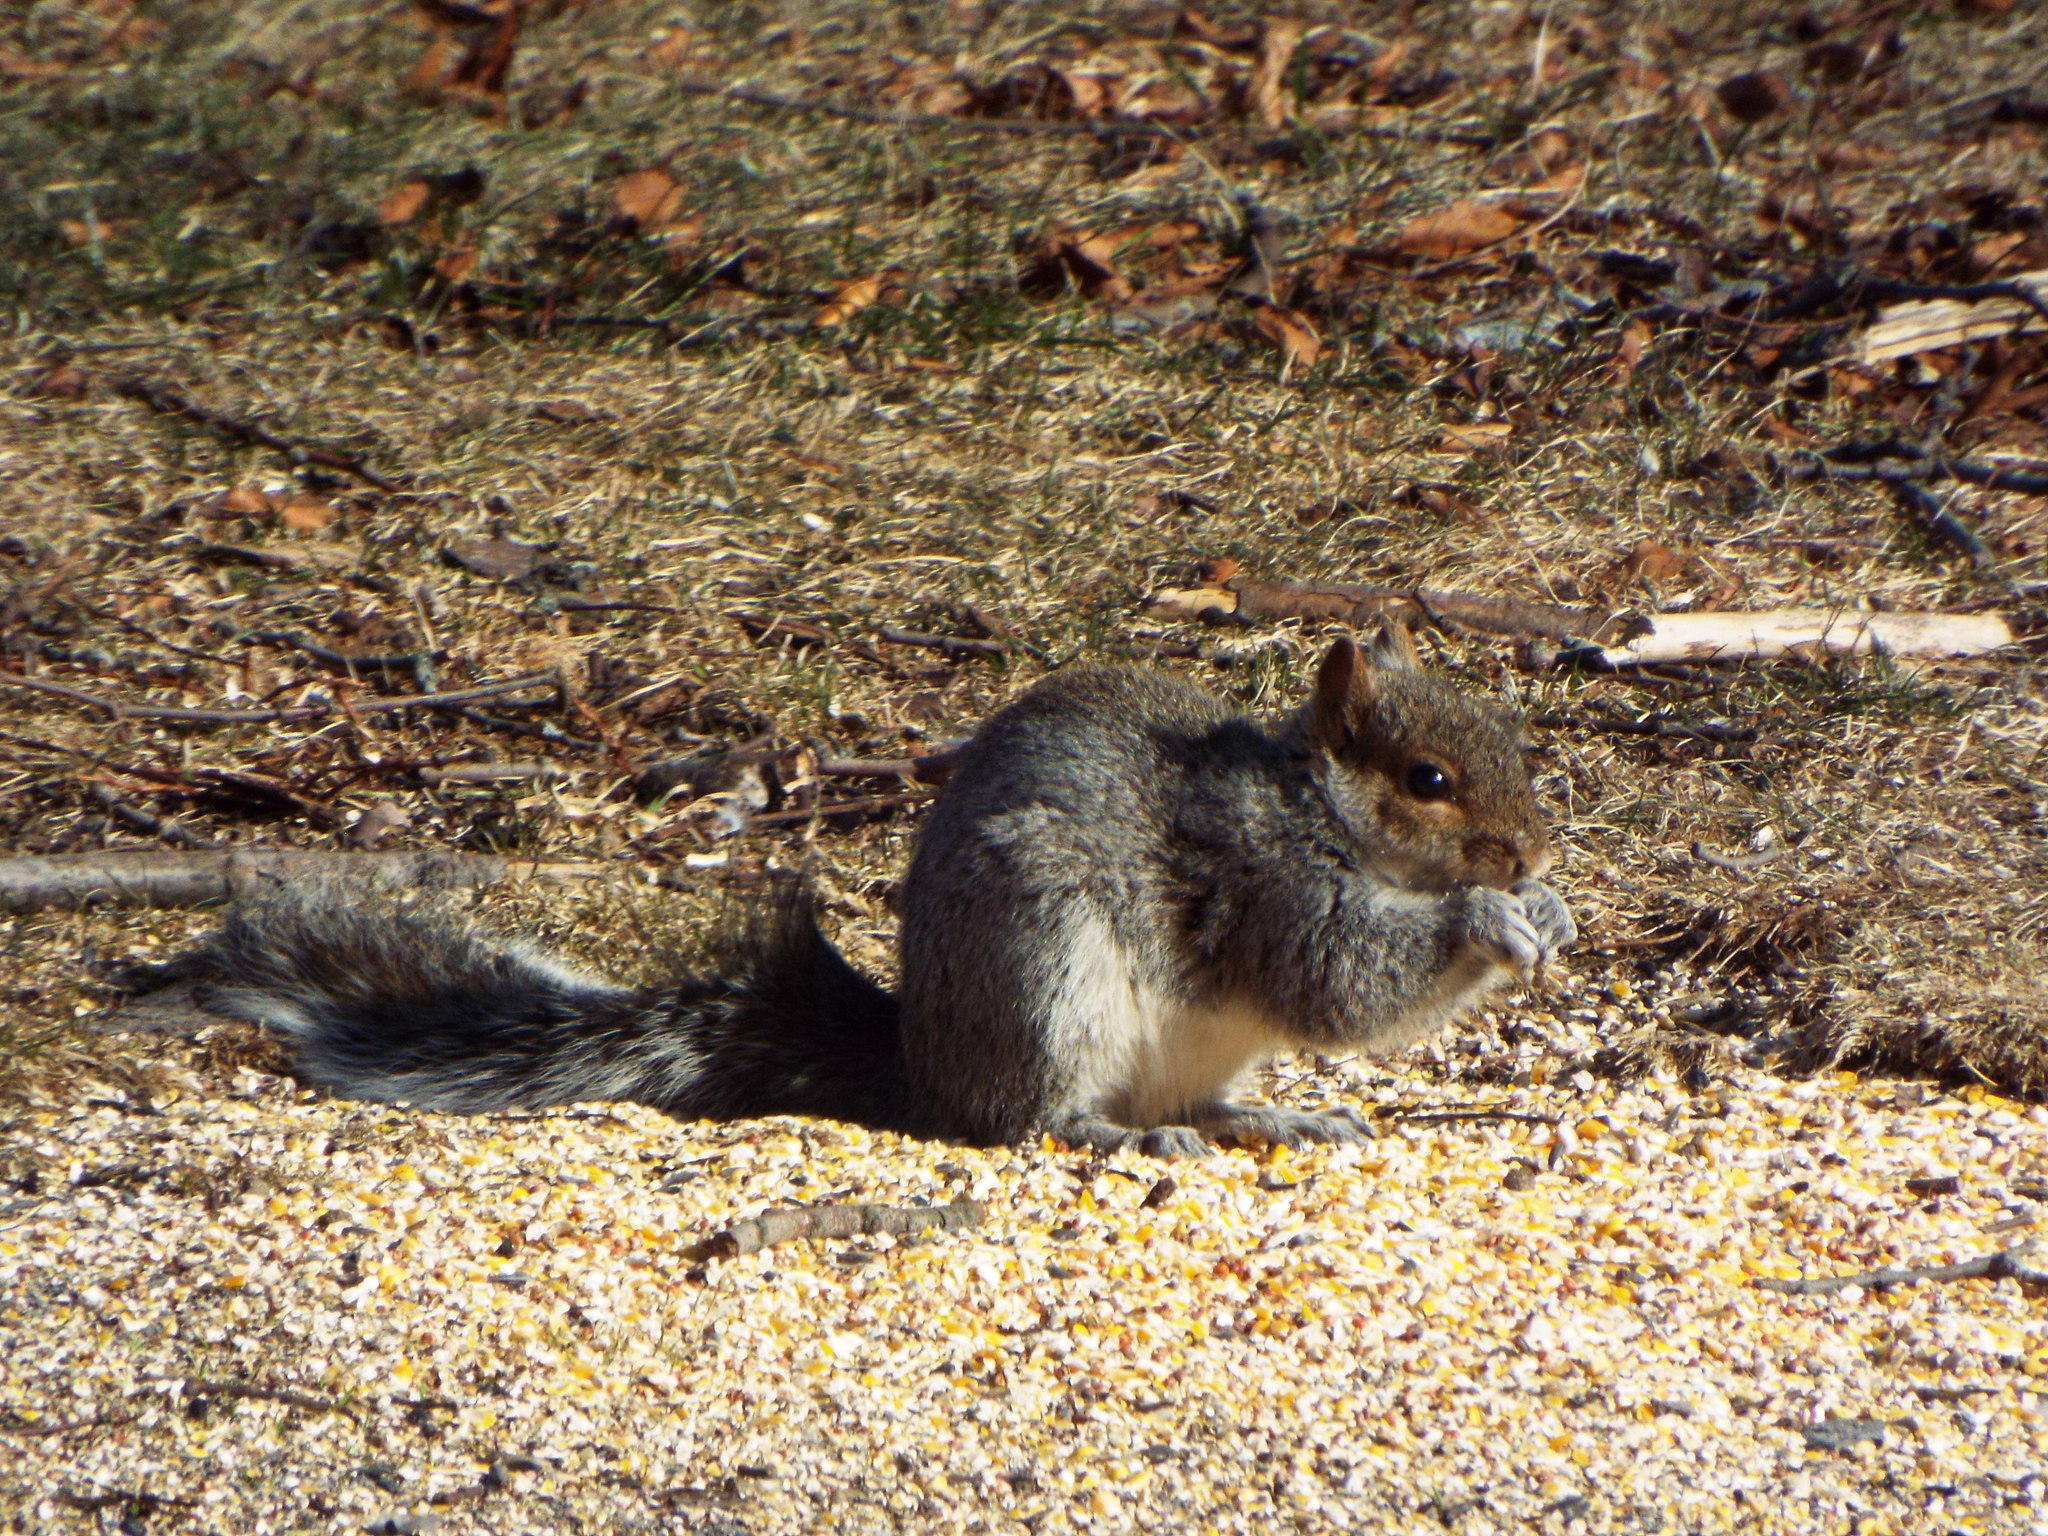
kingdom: Animalia
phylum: Chordata
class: Mammalia
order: Rodentia
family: Sciuridae
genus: Sciurus
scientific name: Sciurus carolinensis
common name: Eastern gray squirrel
